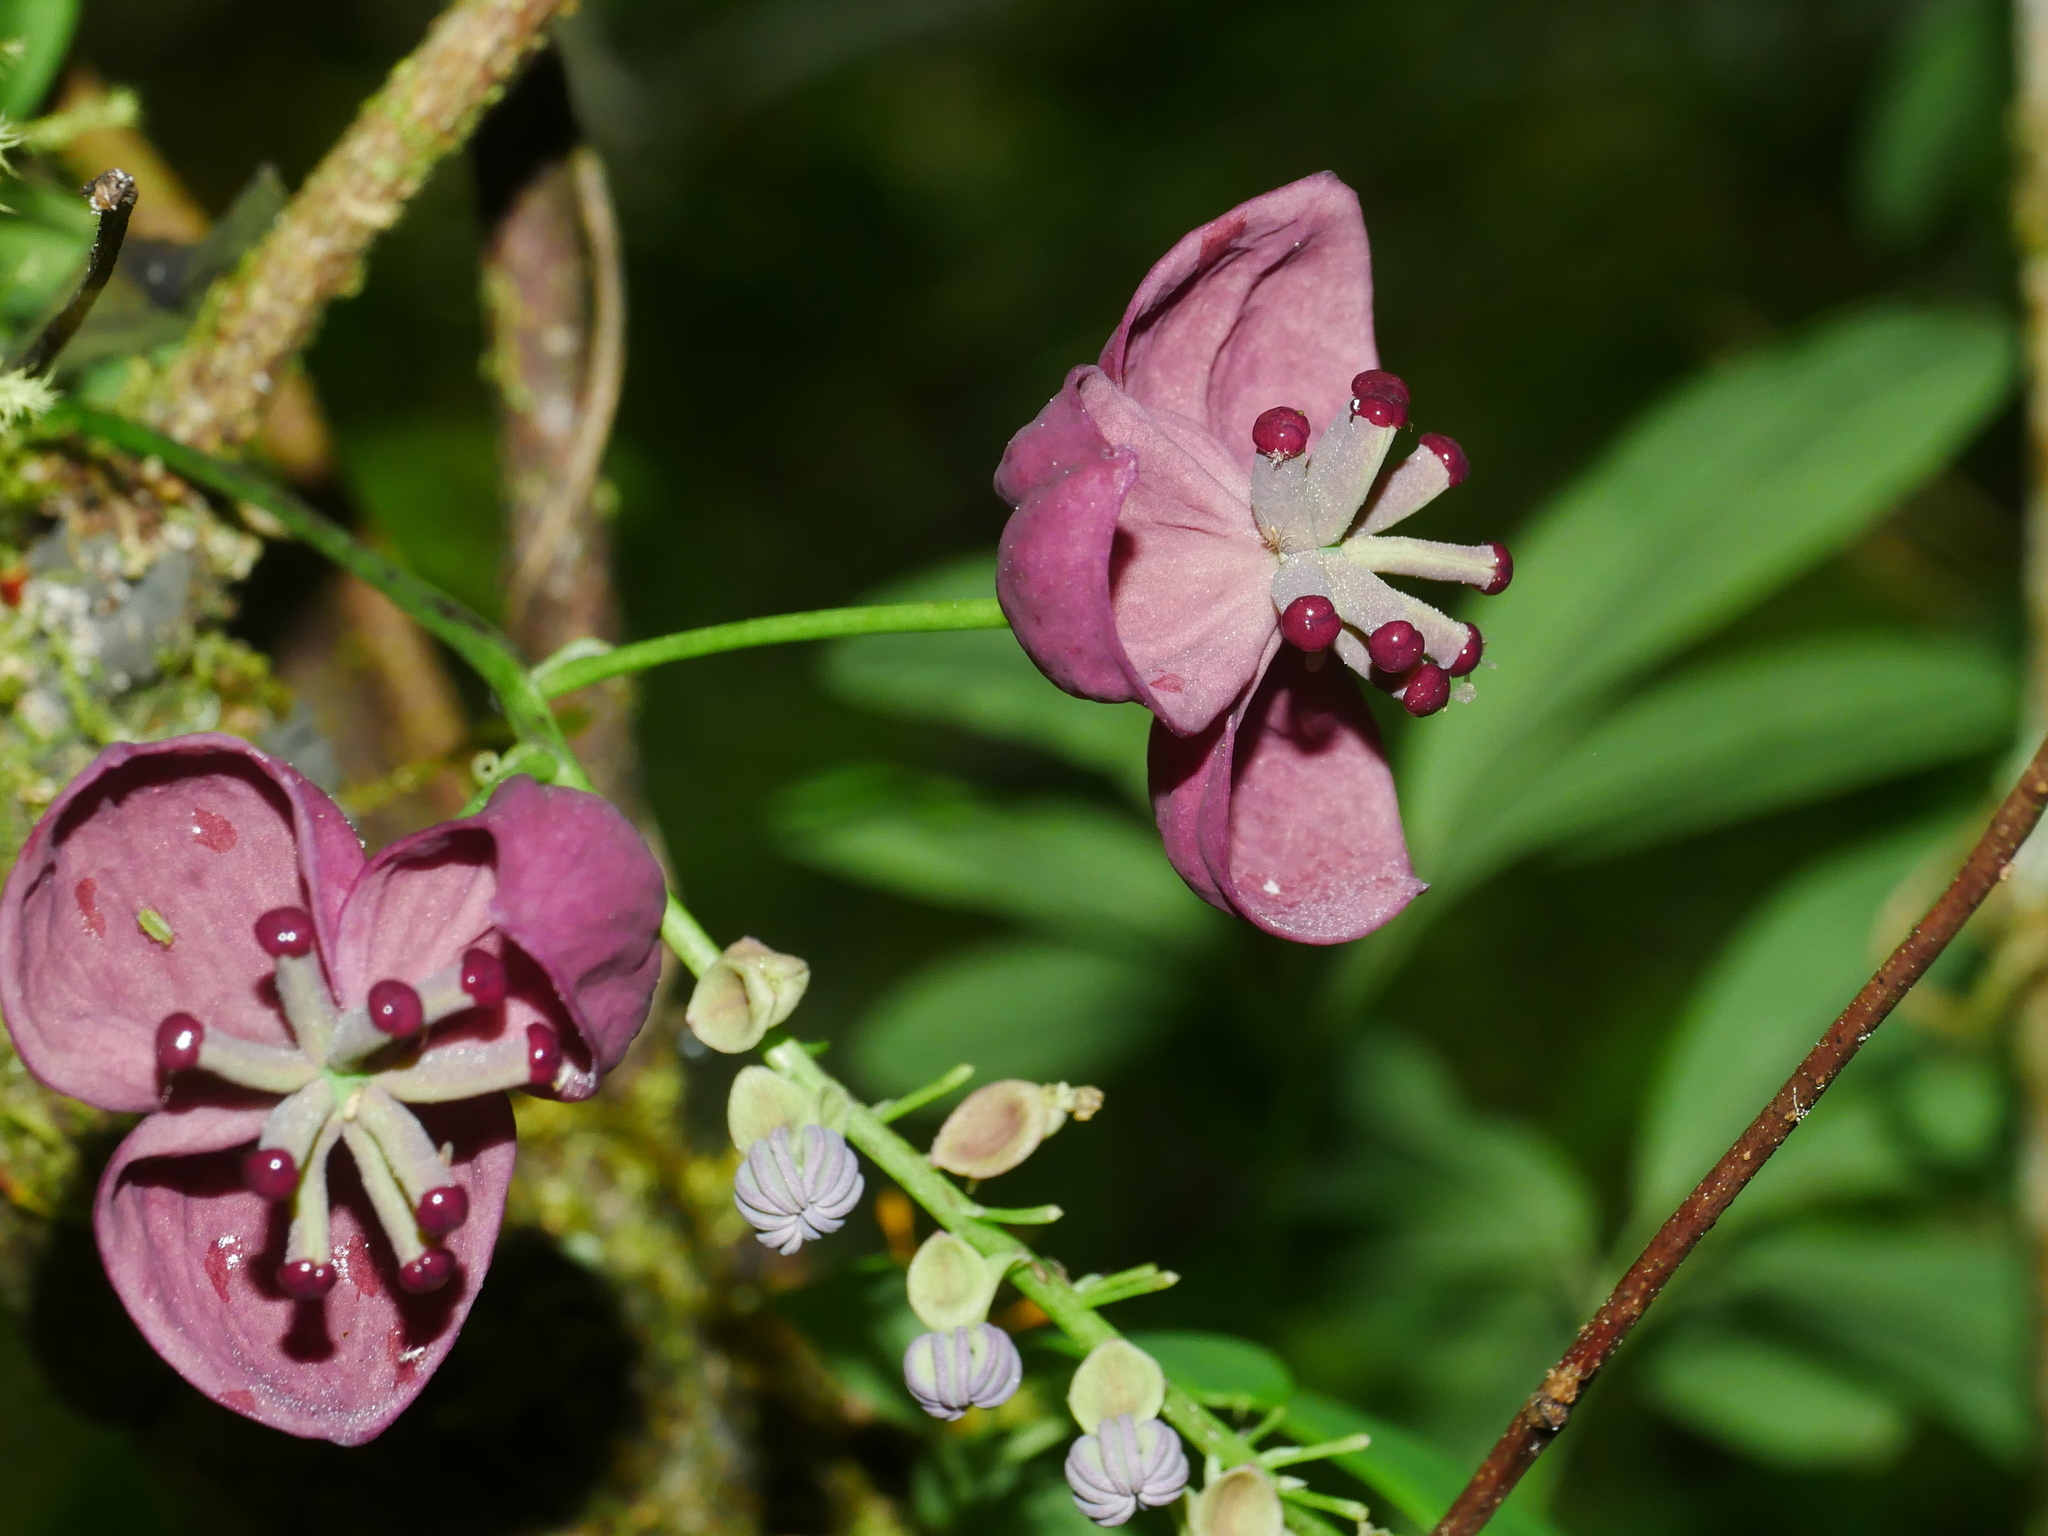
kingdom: Plantae
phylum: Tracheophyta
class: Magnoliopsida
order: Ranunculales
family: Lardizabalaceae
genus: Akebia
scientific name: Akebia longeracemosa
